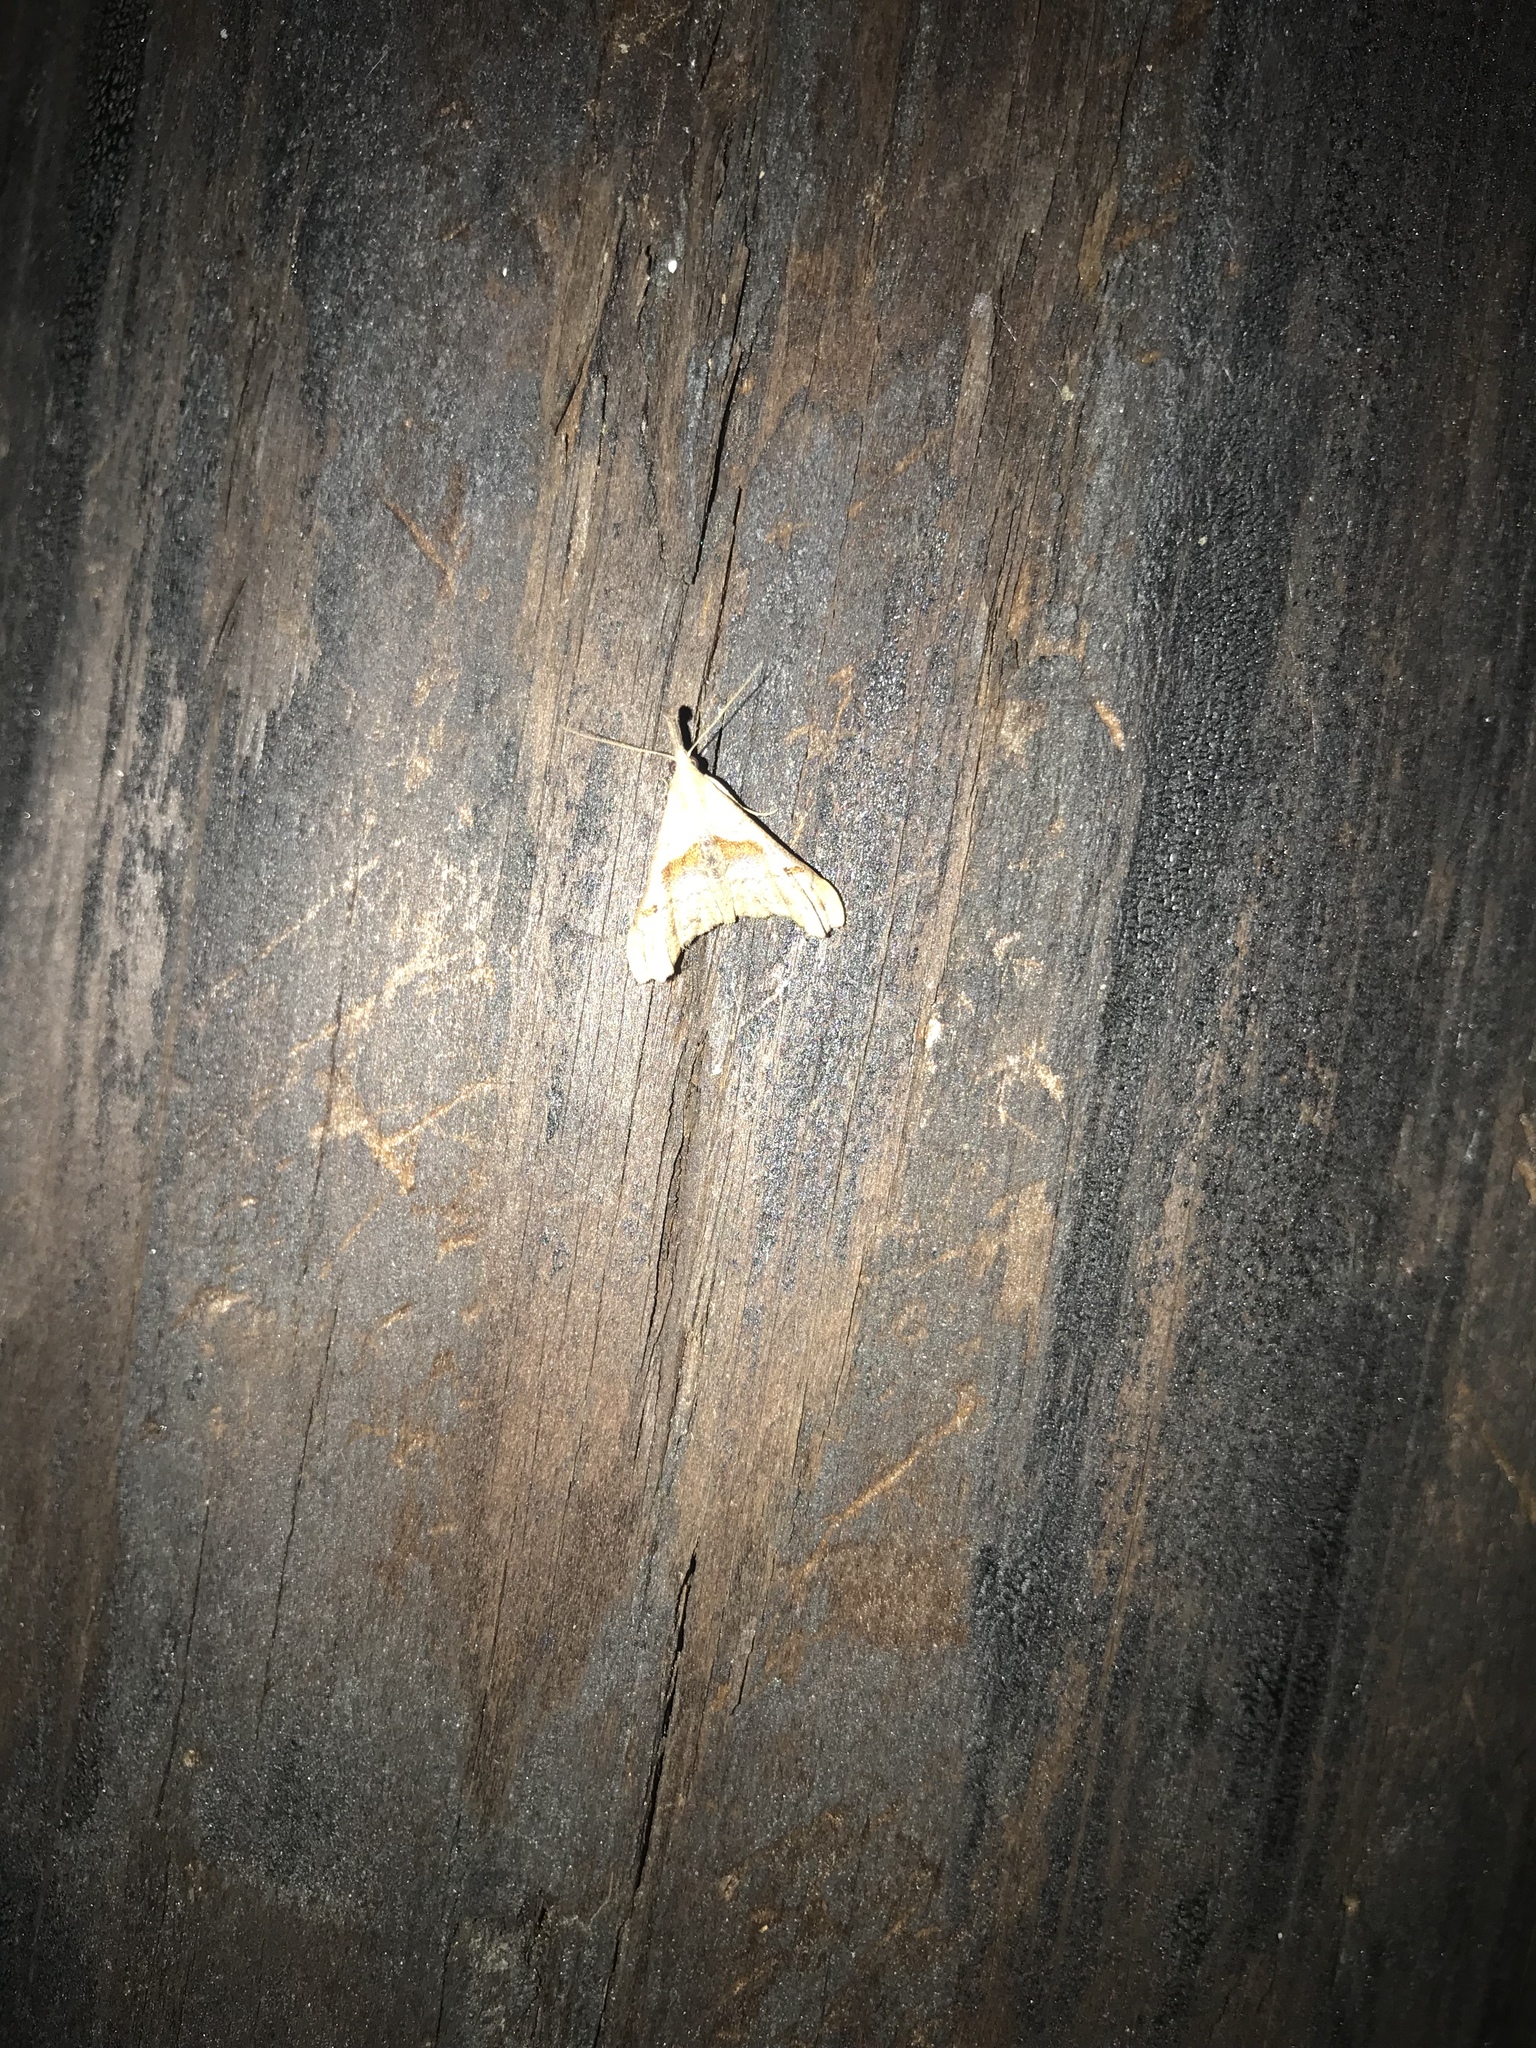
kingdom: Animalia
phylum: Arthropoda
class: Insecta
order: Lepidoptera
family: Erebidae
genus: Palthis
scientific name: Palthis angulalis
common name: Dark-spotted palthis moth
